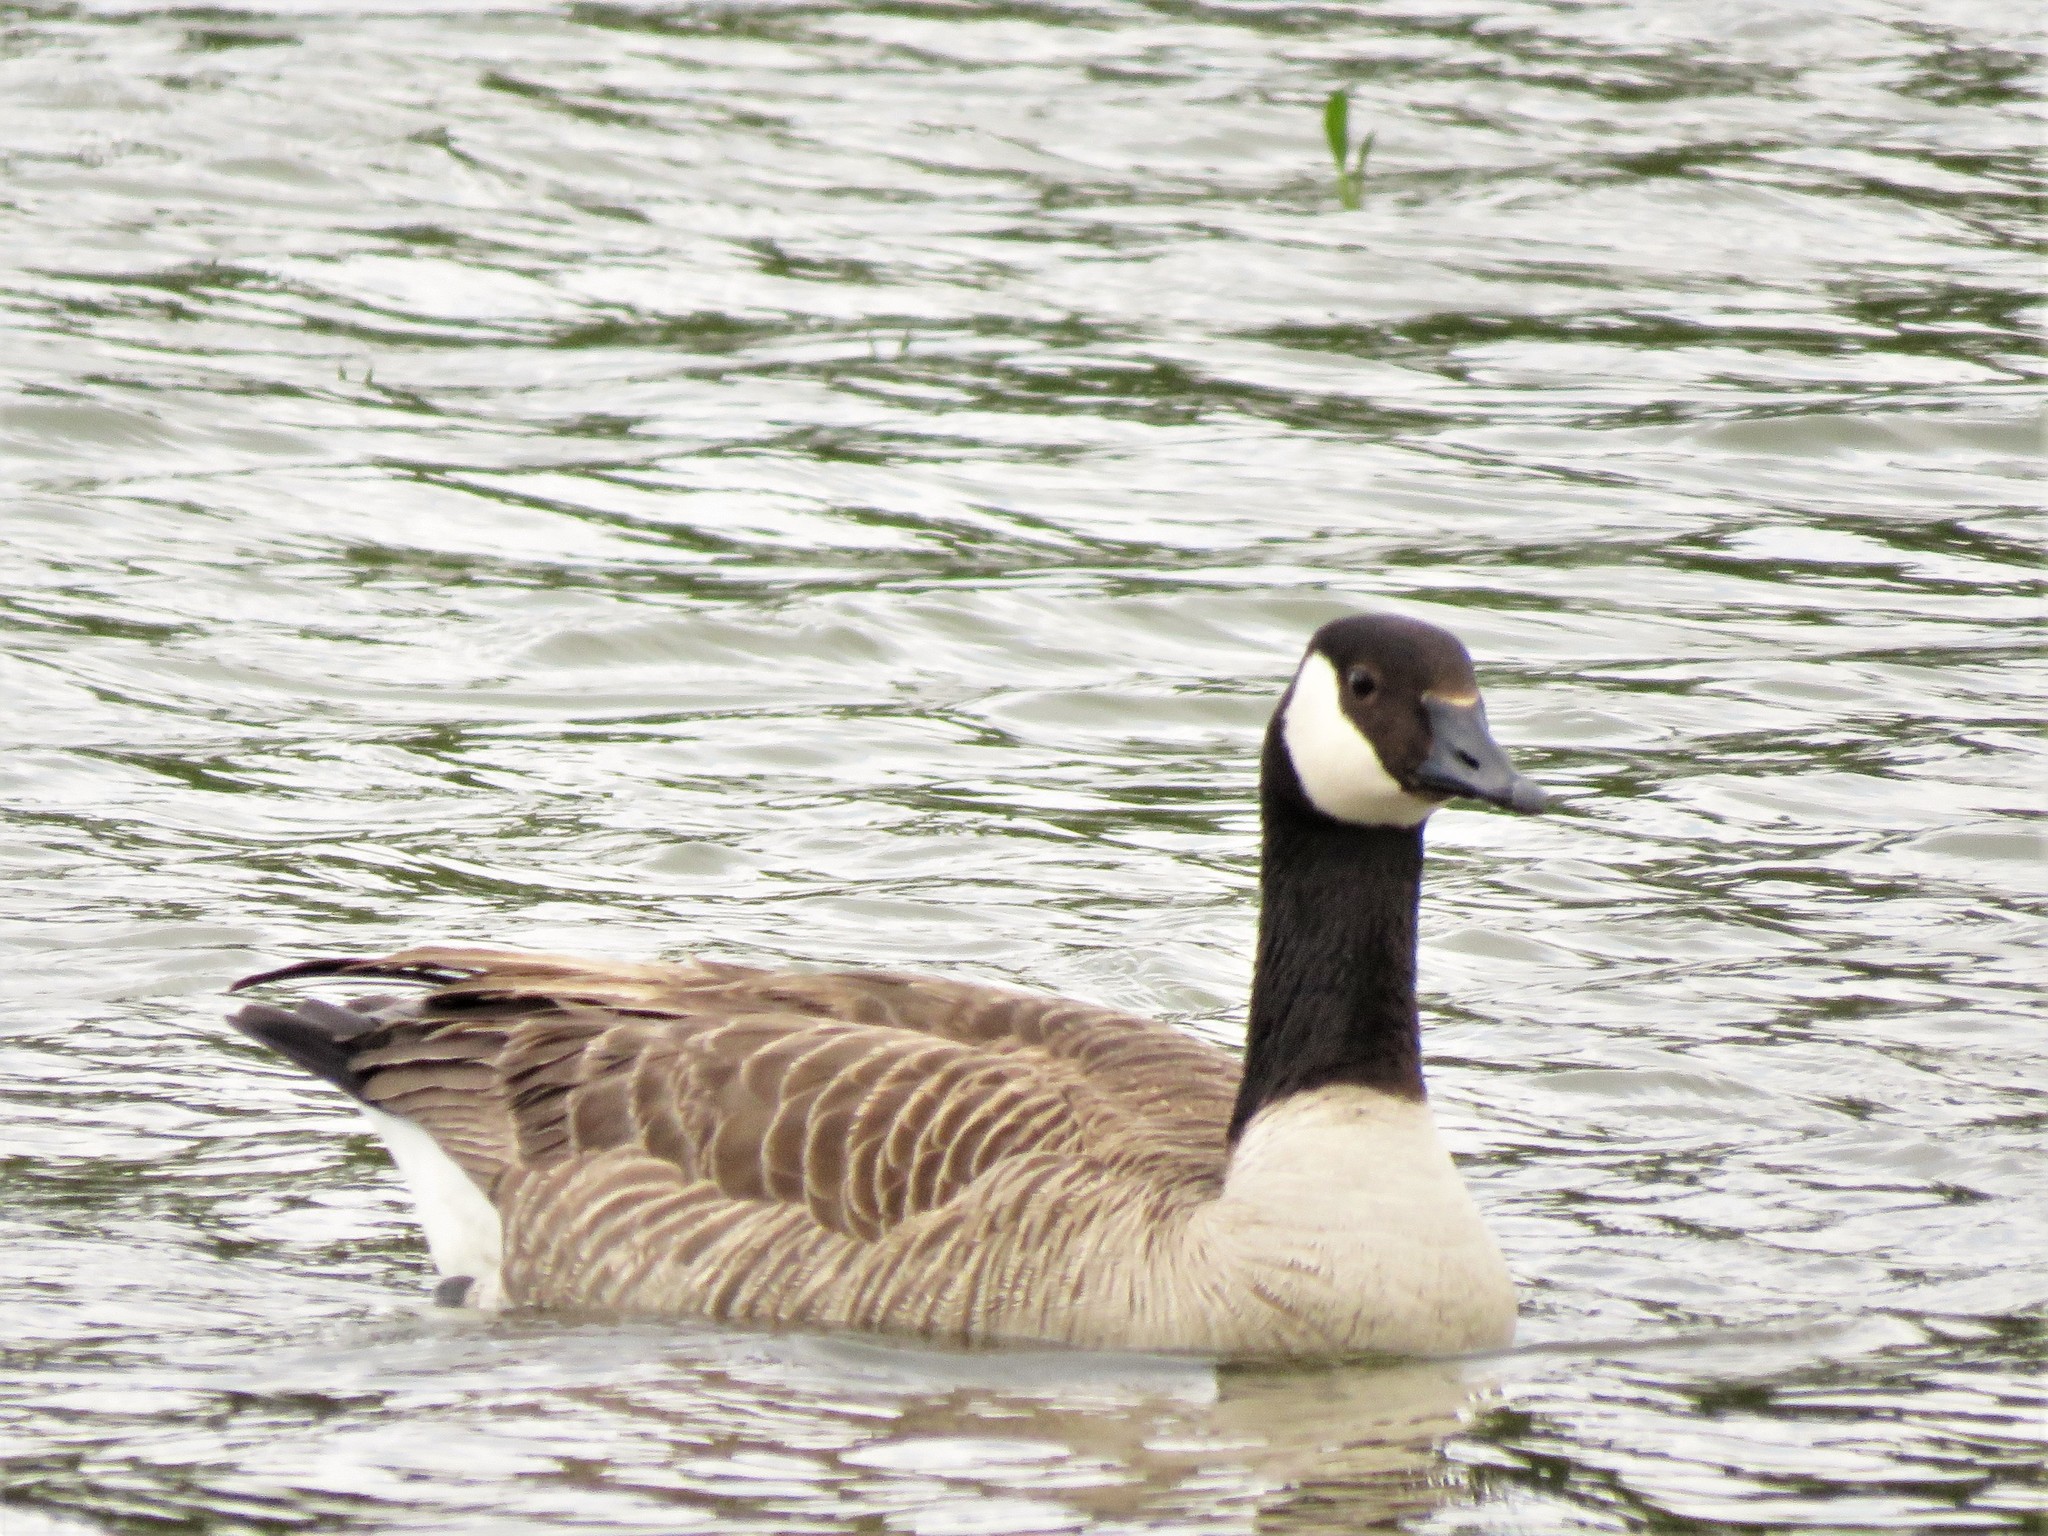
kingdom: Animalia
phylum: Chordata
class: Aves
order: Anseriformes
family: Anatidae
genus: Branta
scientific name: Branta canadensis
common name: Canada goose
